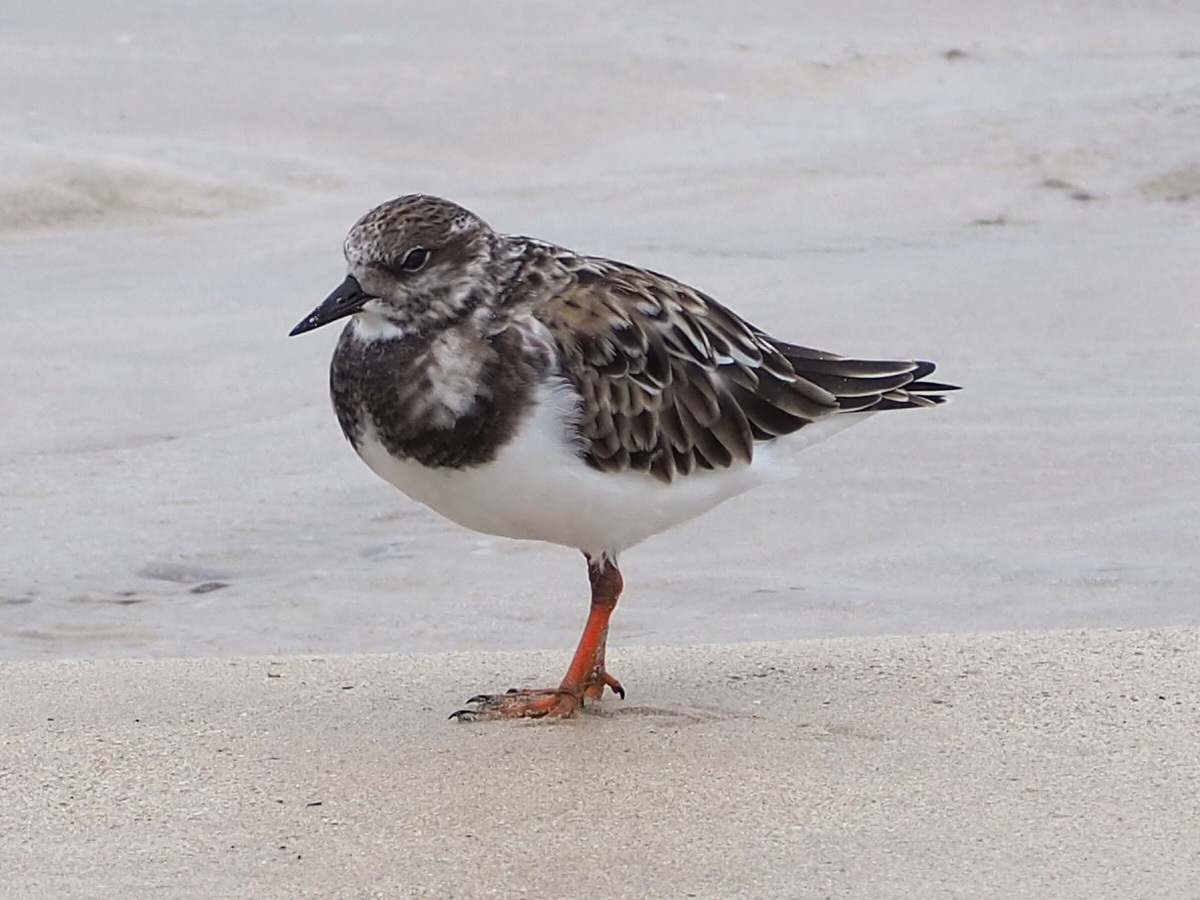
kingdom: Animalia
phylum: Chordata
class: Aves
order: Charadriiformes
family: Scolopacidae
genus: Arenaria
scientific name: Arenaria interpres
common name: Ruddy turnstone
